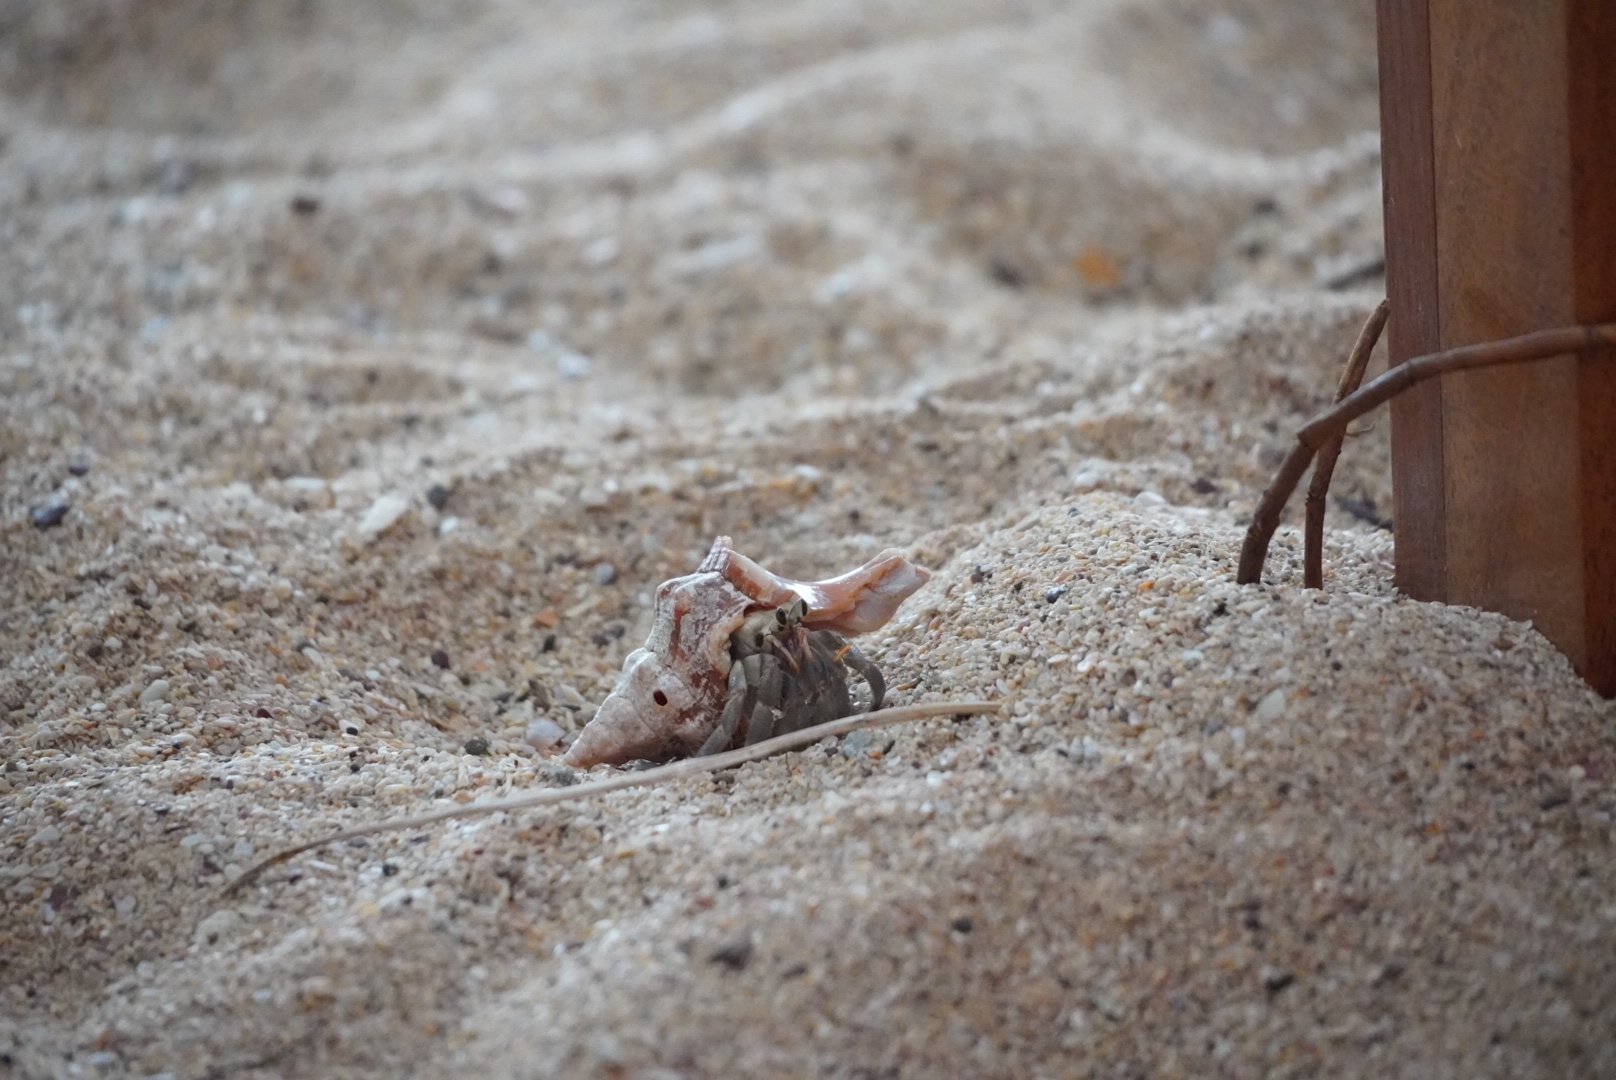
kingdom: Animalia
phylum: Arthropoda
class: Malacostraca
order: Decapoda
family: Coenobitidae
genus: Coenobita
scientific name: Coenobita rugosus
